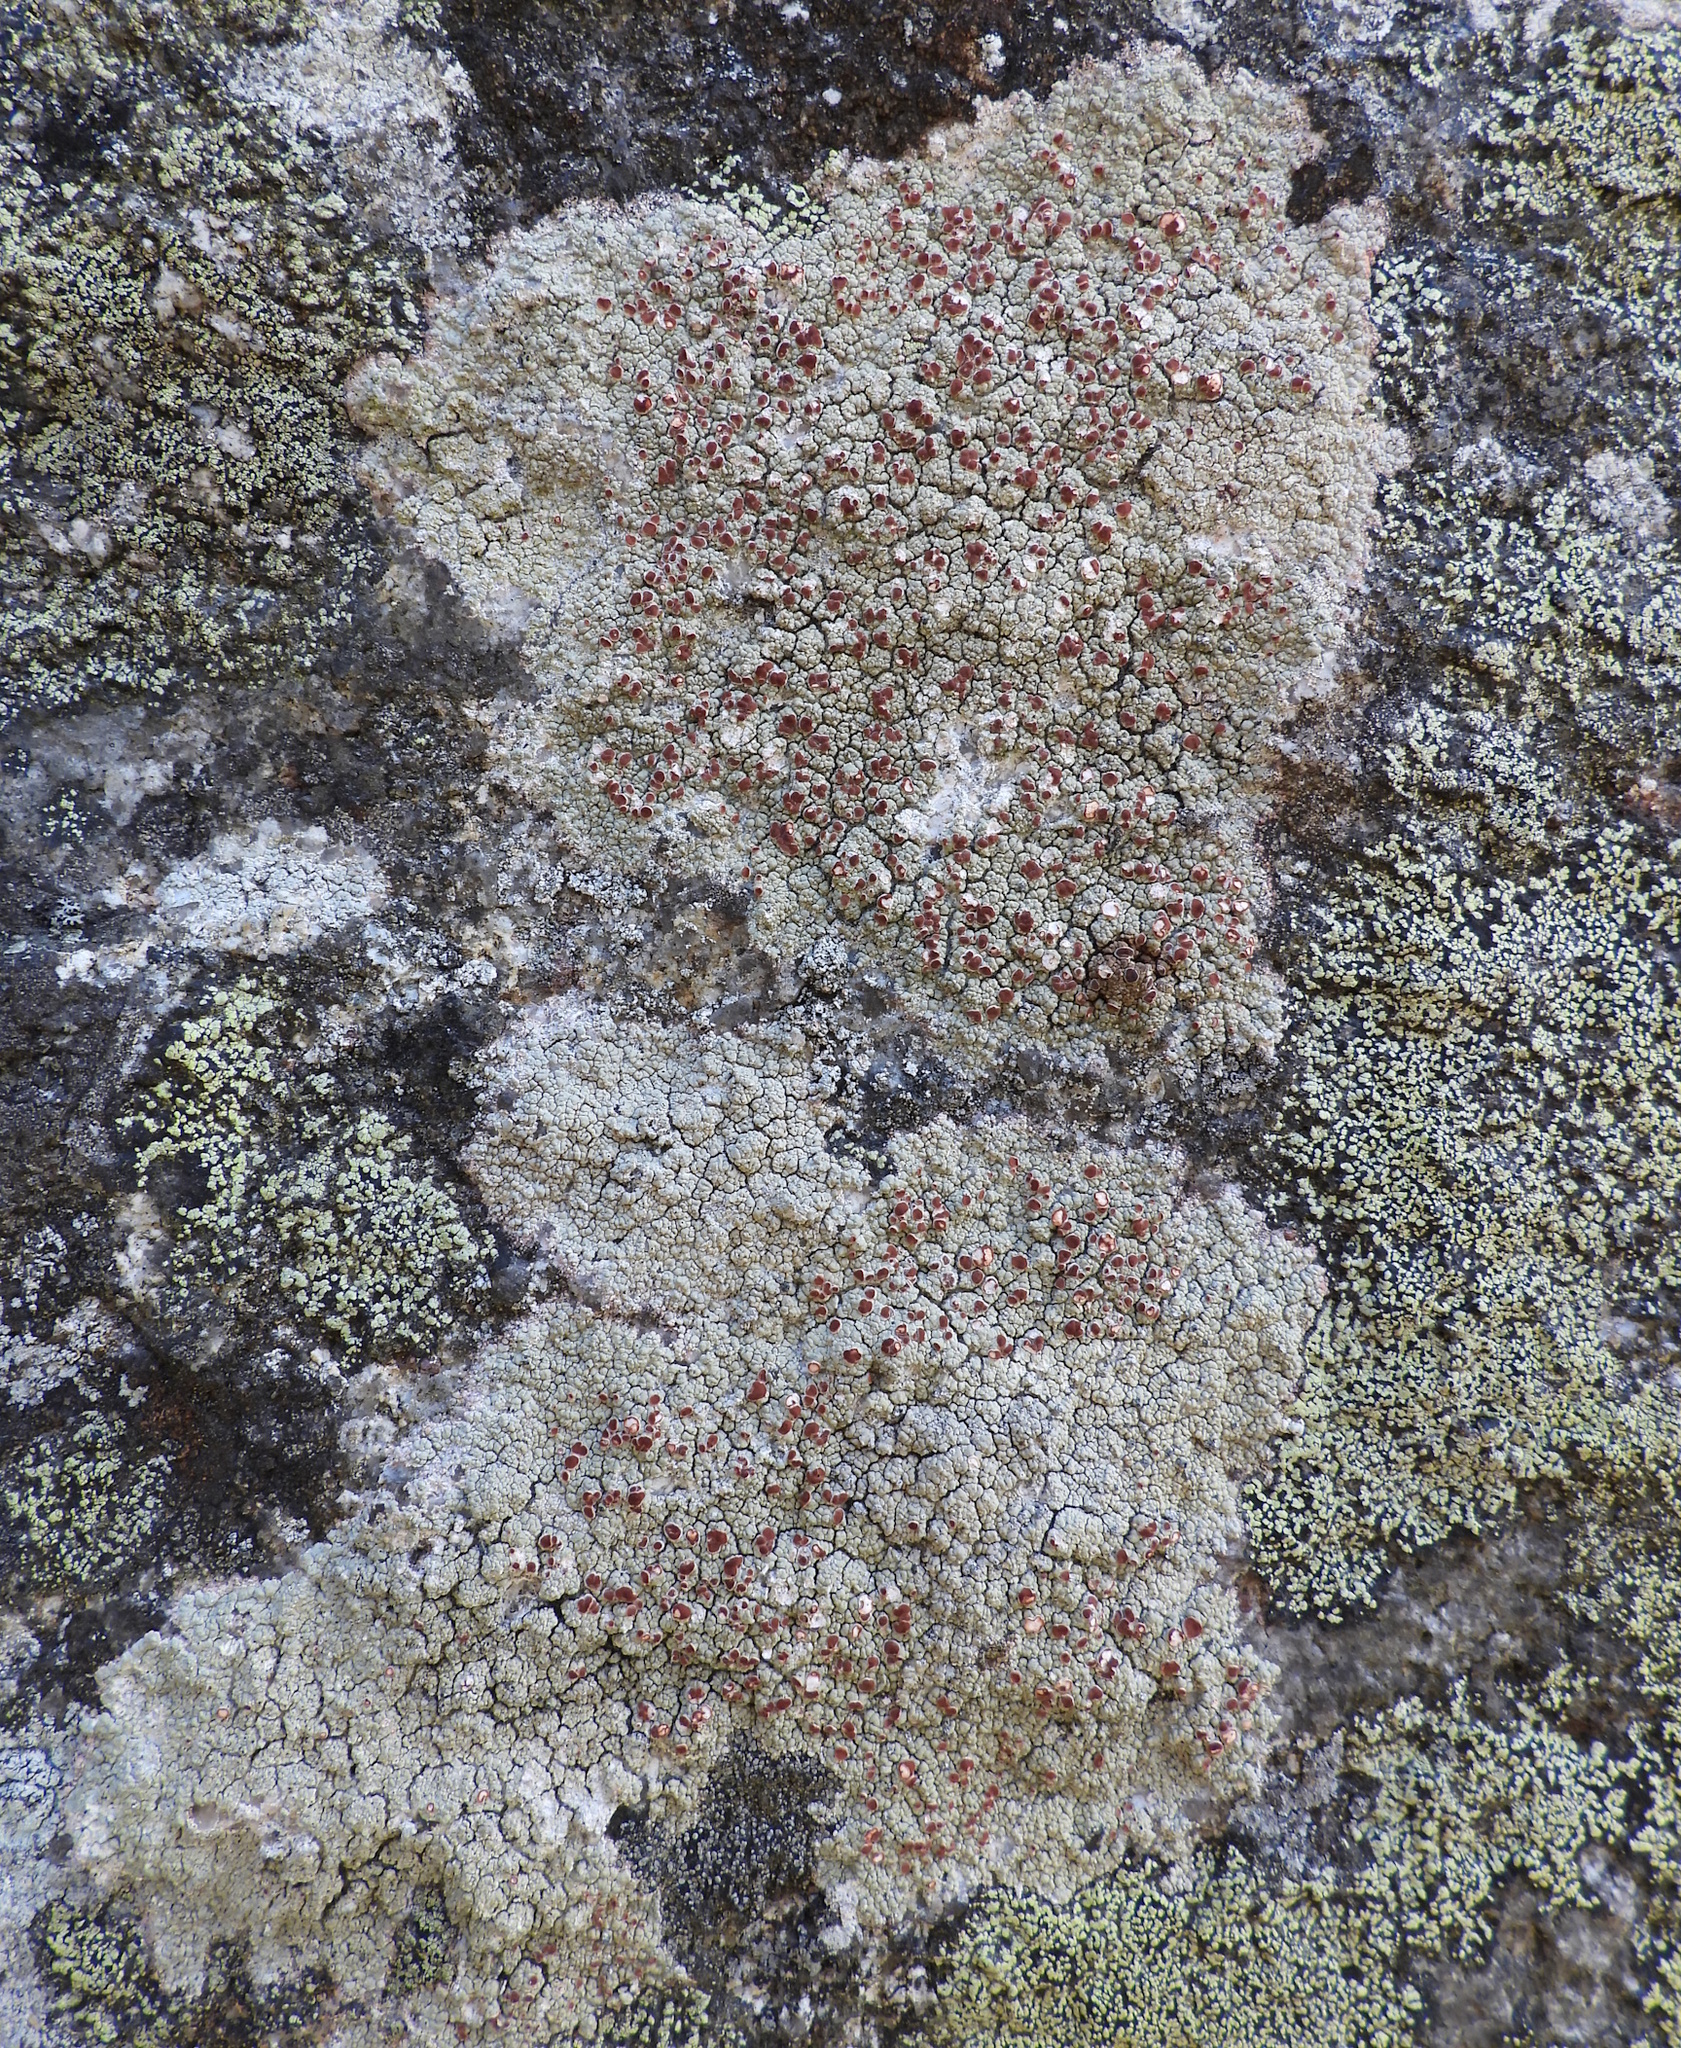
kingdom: Fungi
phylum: Ascomycota
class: Lecanoromycetes
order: Umbilicariales
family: Ophioparmaceae
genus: Ophioparma
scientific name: Ophioparma ventosa
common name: Blood-spot
